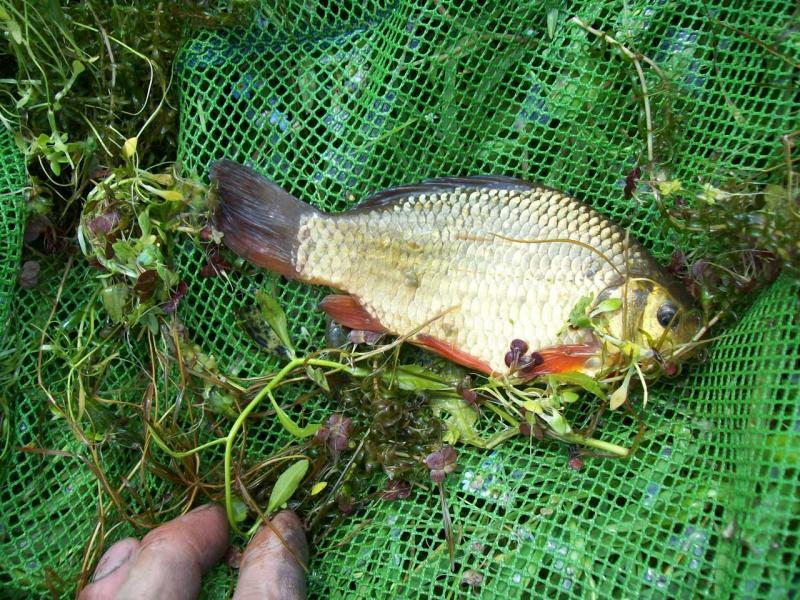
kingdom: Animalia
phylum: Chordata
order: Cypriniformes
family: Cyprinidae
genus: Carassius
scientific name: Carassius carassius
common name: Crucian carp
